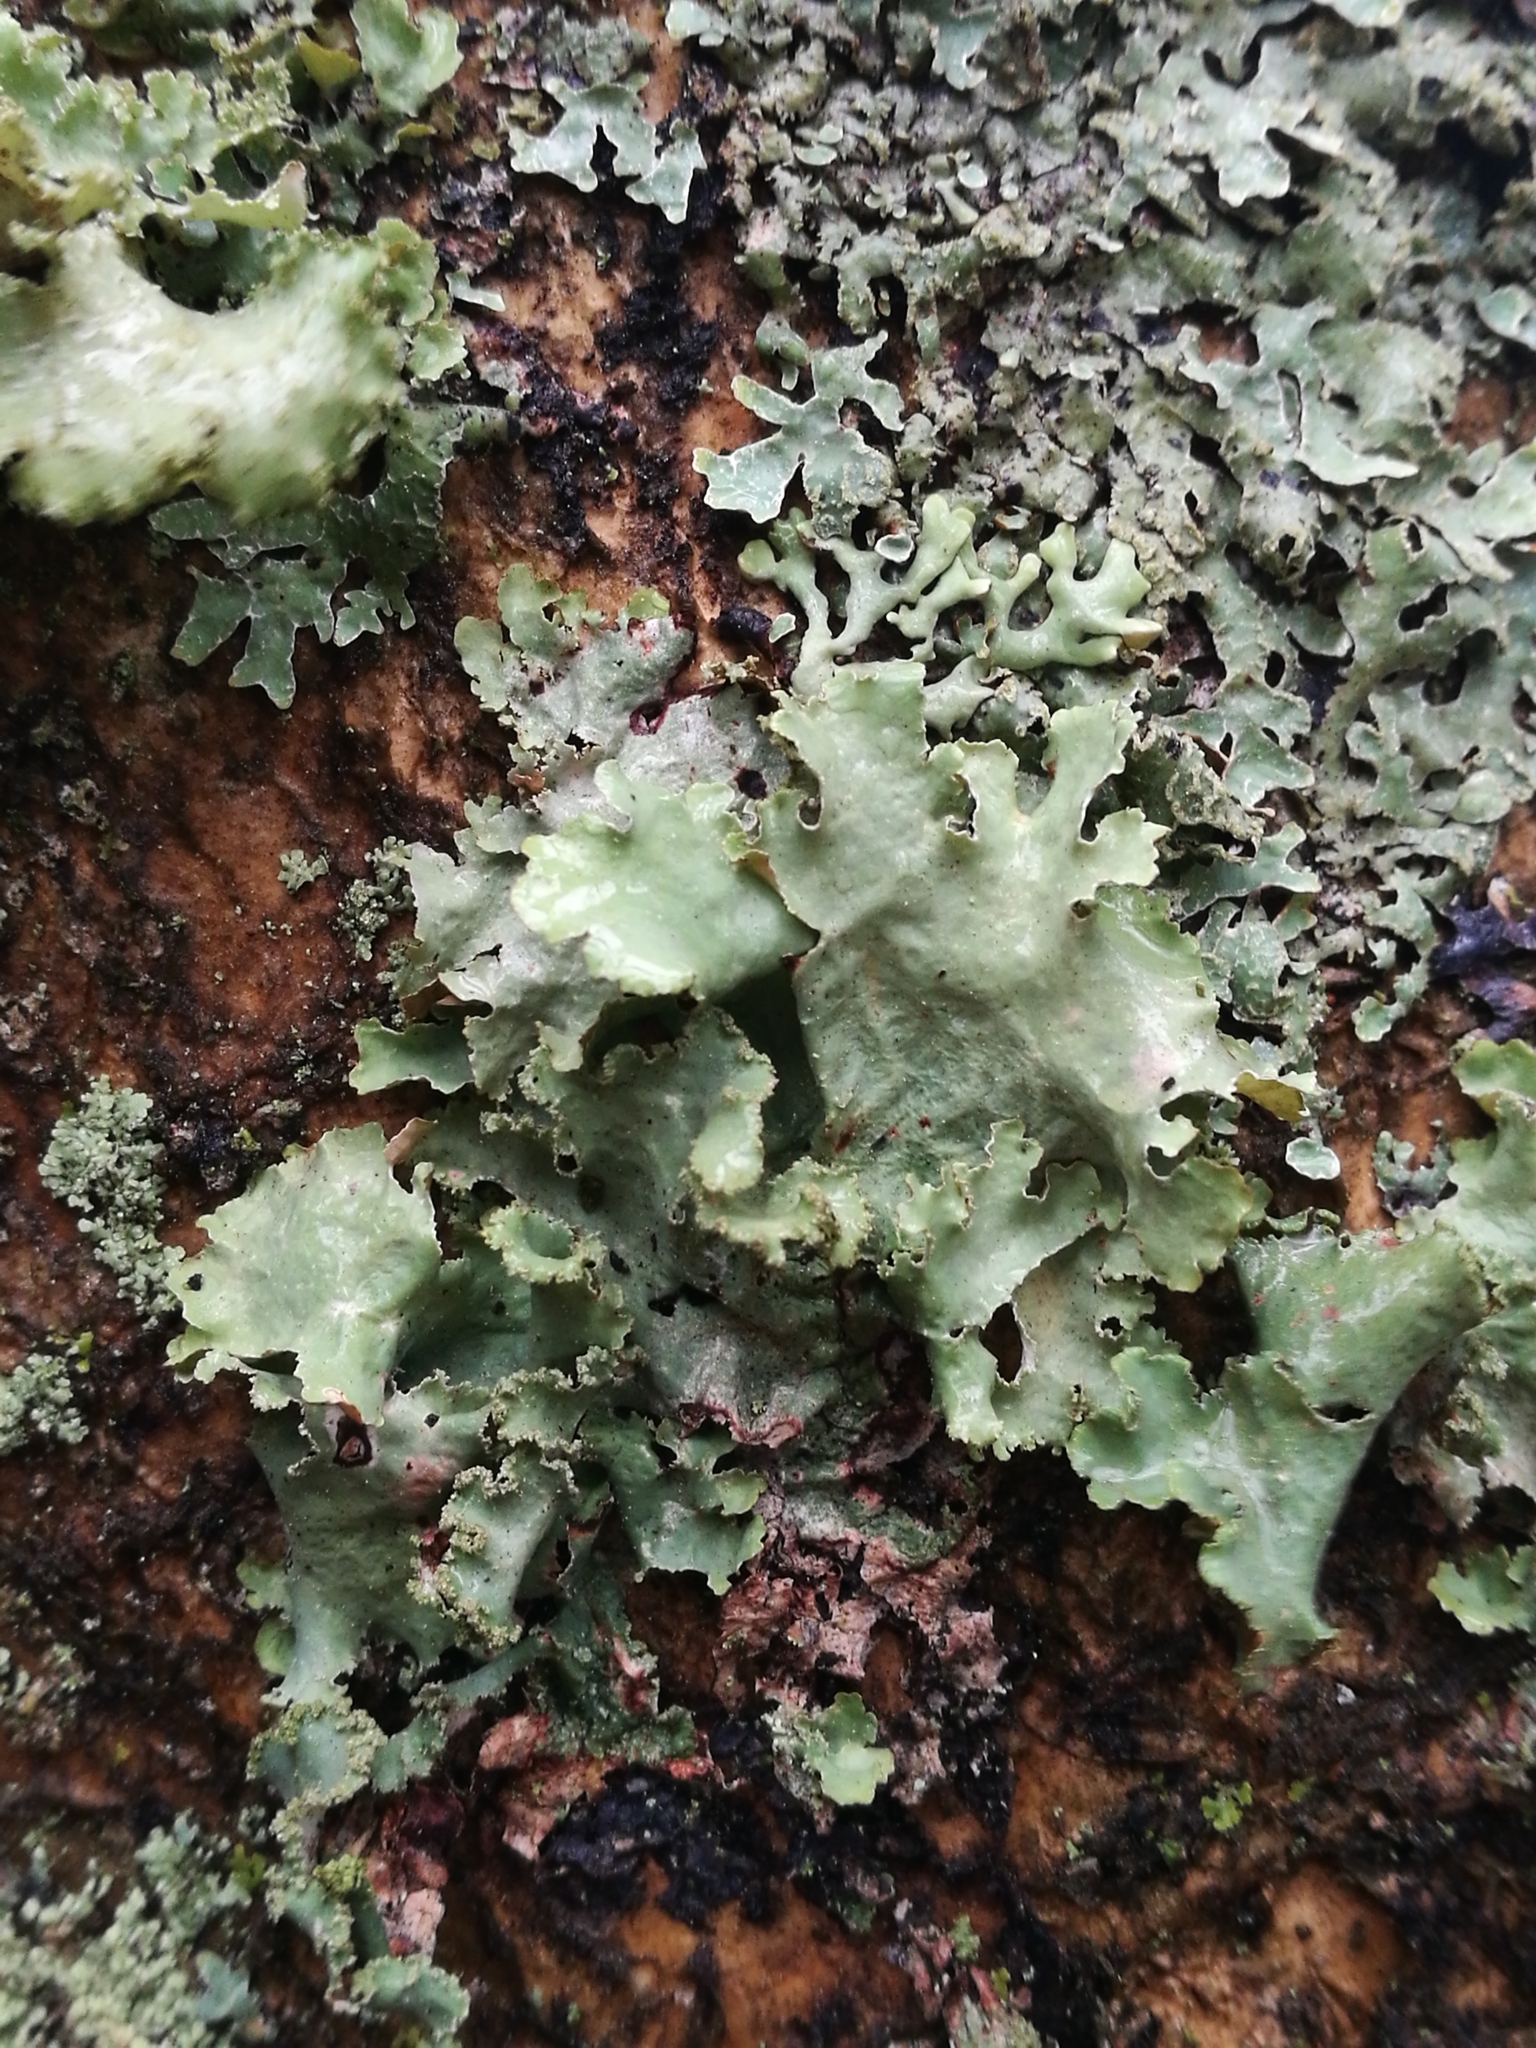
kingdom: Fungi
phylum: Ascomycota
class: Lecanoromycetes
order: Lecanorales
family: Parmeliaceae
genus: Platismatia
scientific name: Platismatia glauca
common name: Varied rag lichen
